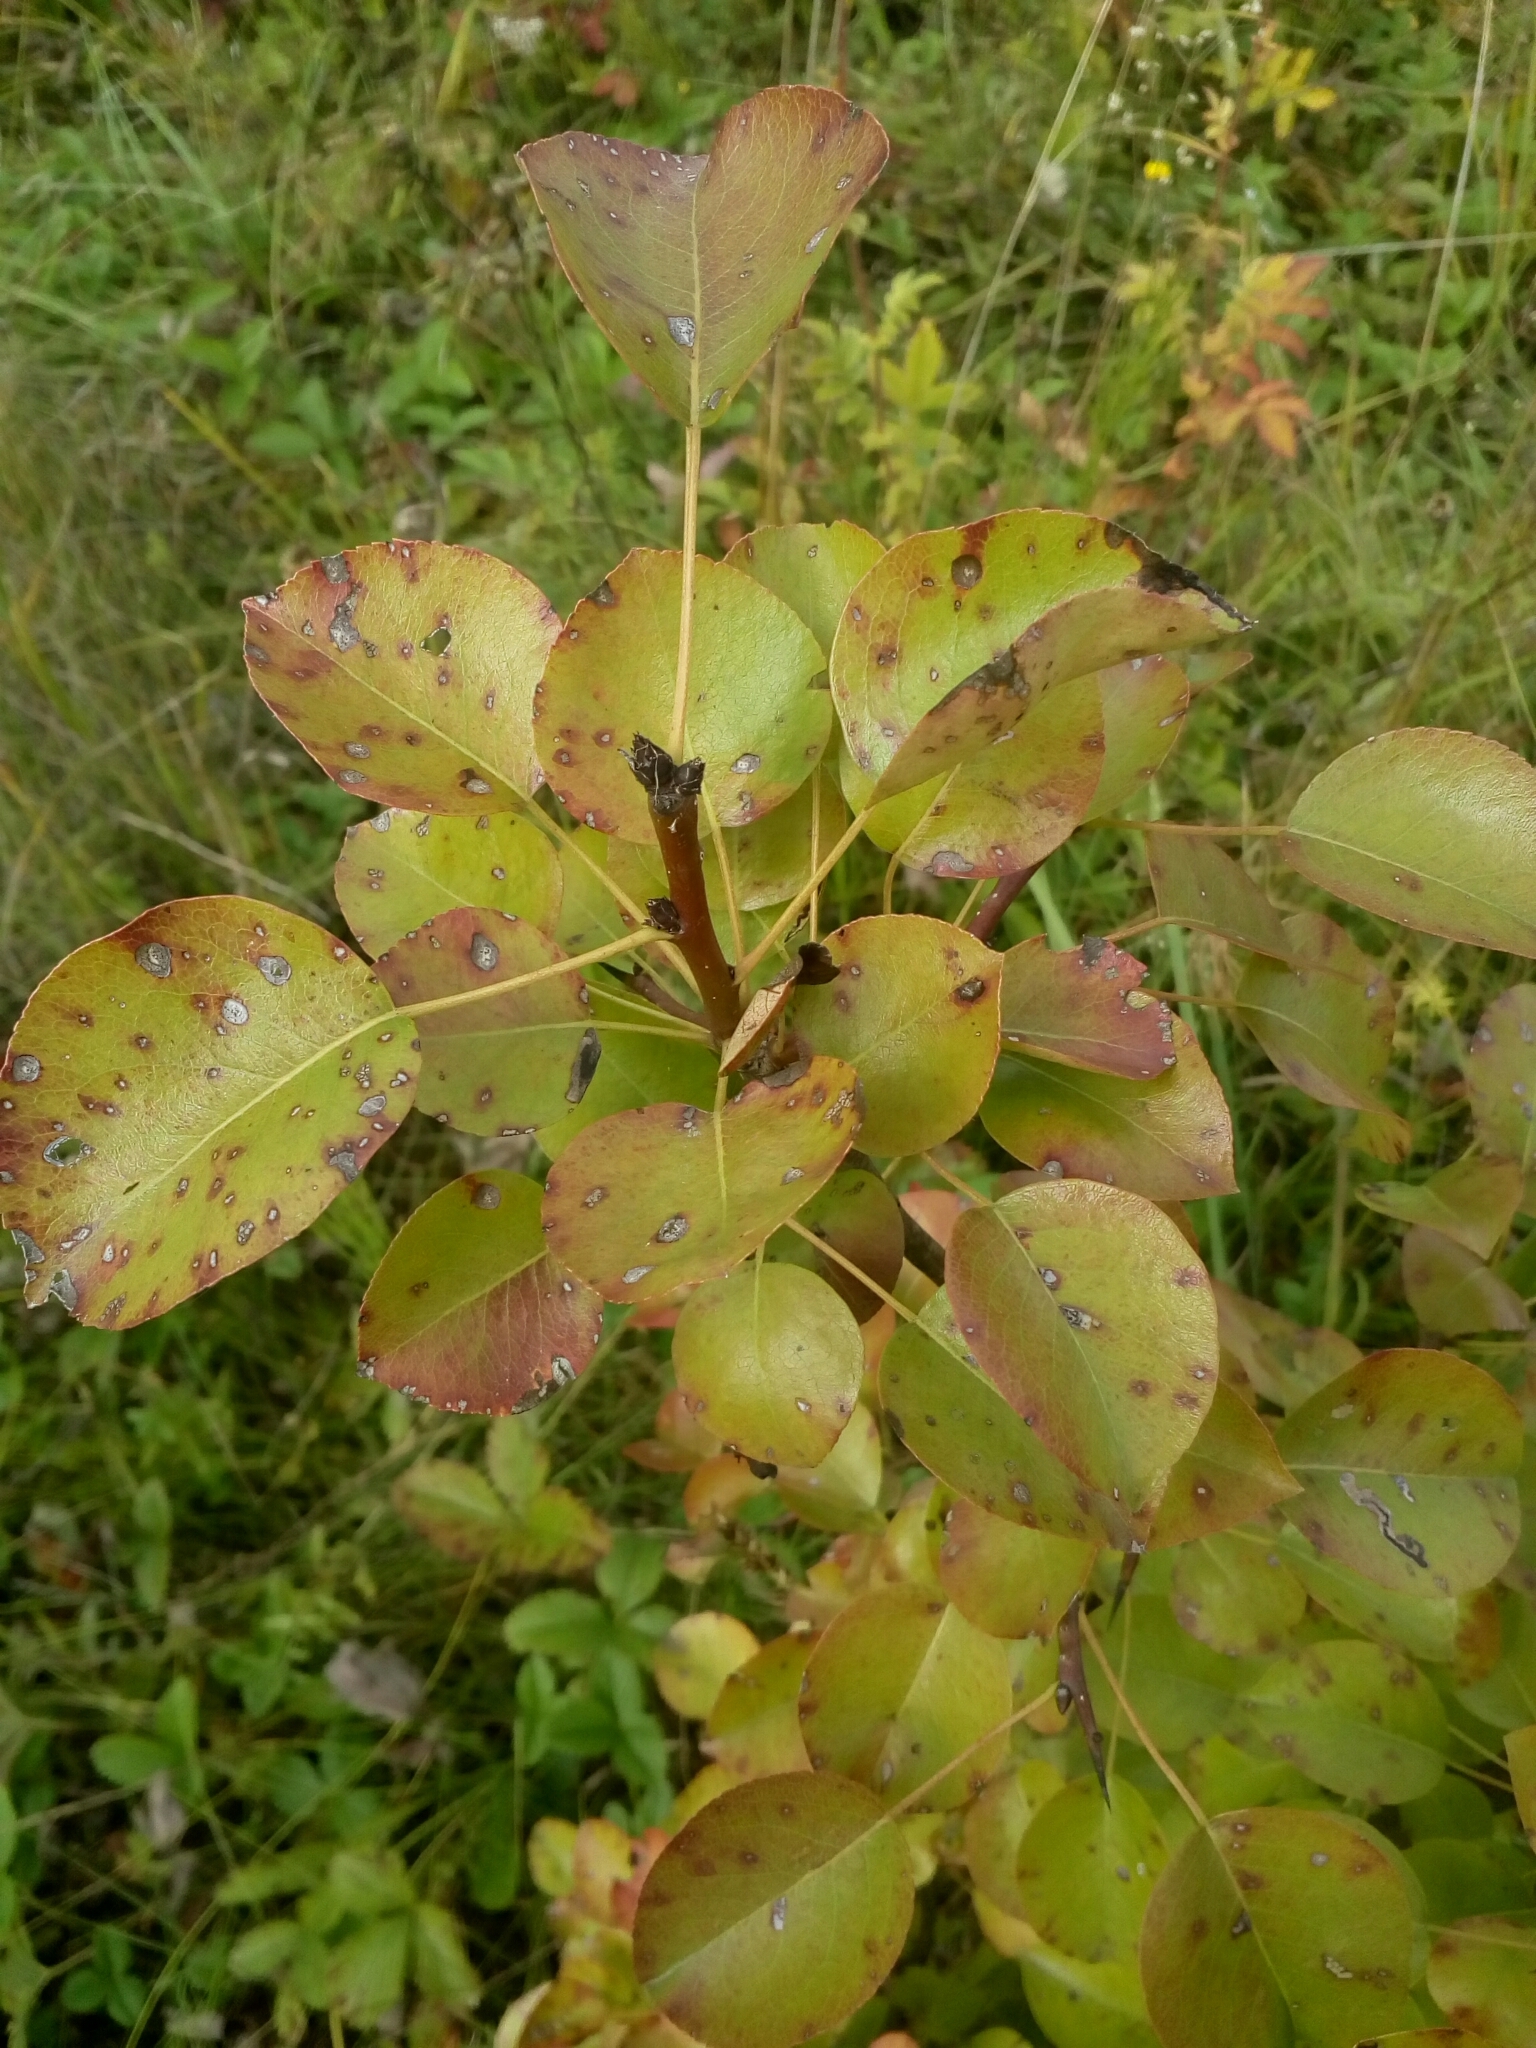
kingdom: Plantae
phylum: Tracheophyta
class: Magnoliopsida
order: Rosales
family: Rosaceae
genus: Pyrus
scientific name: Pyrus communis
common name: Pear
